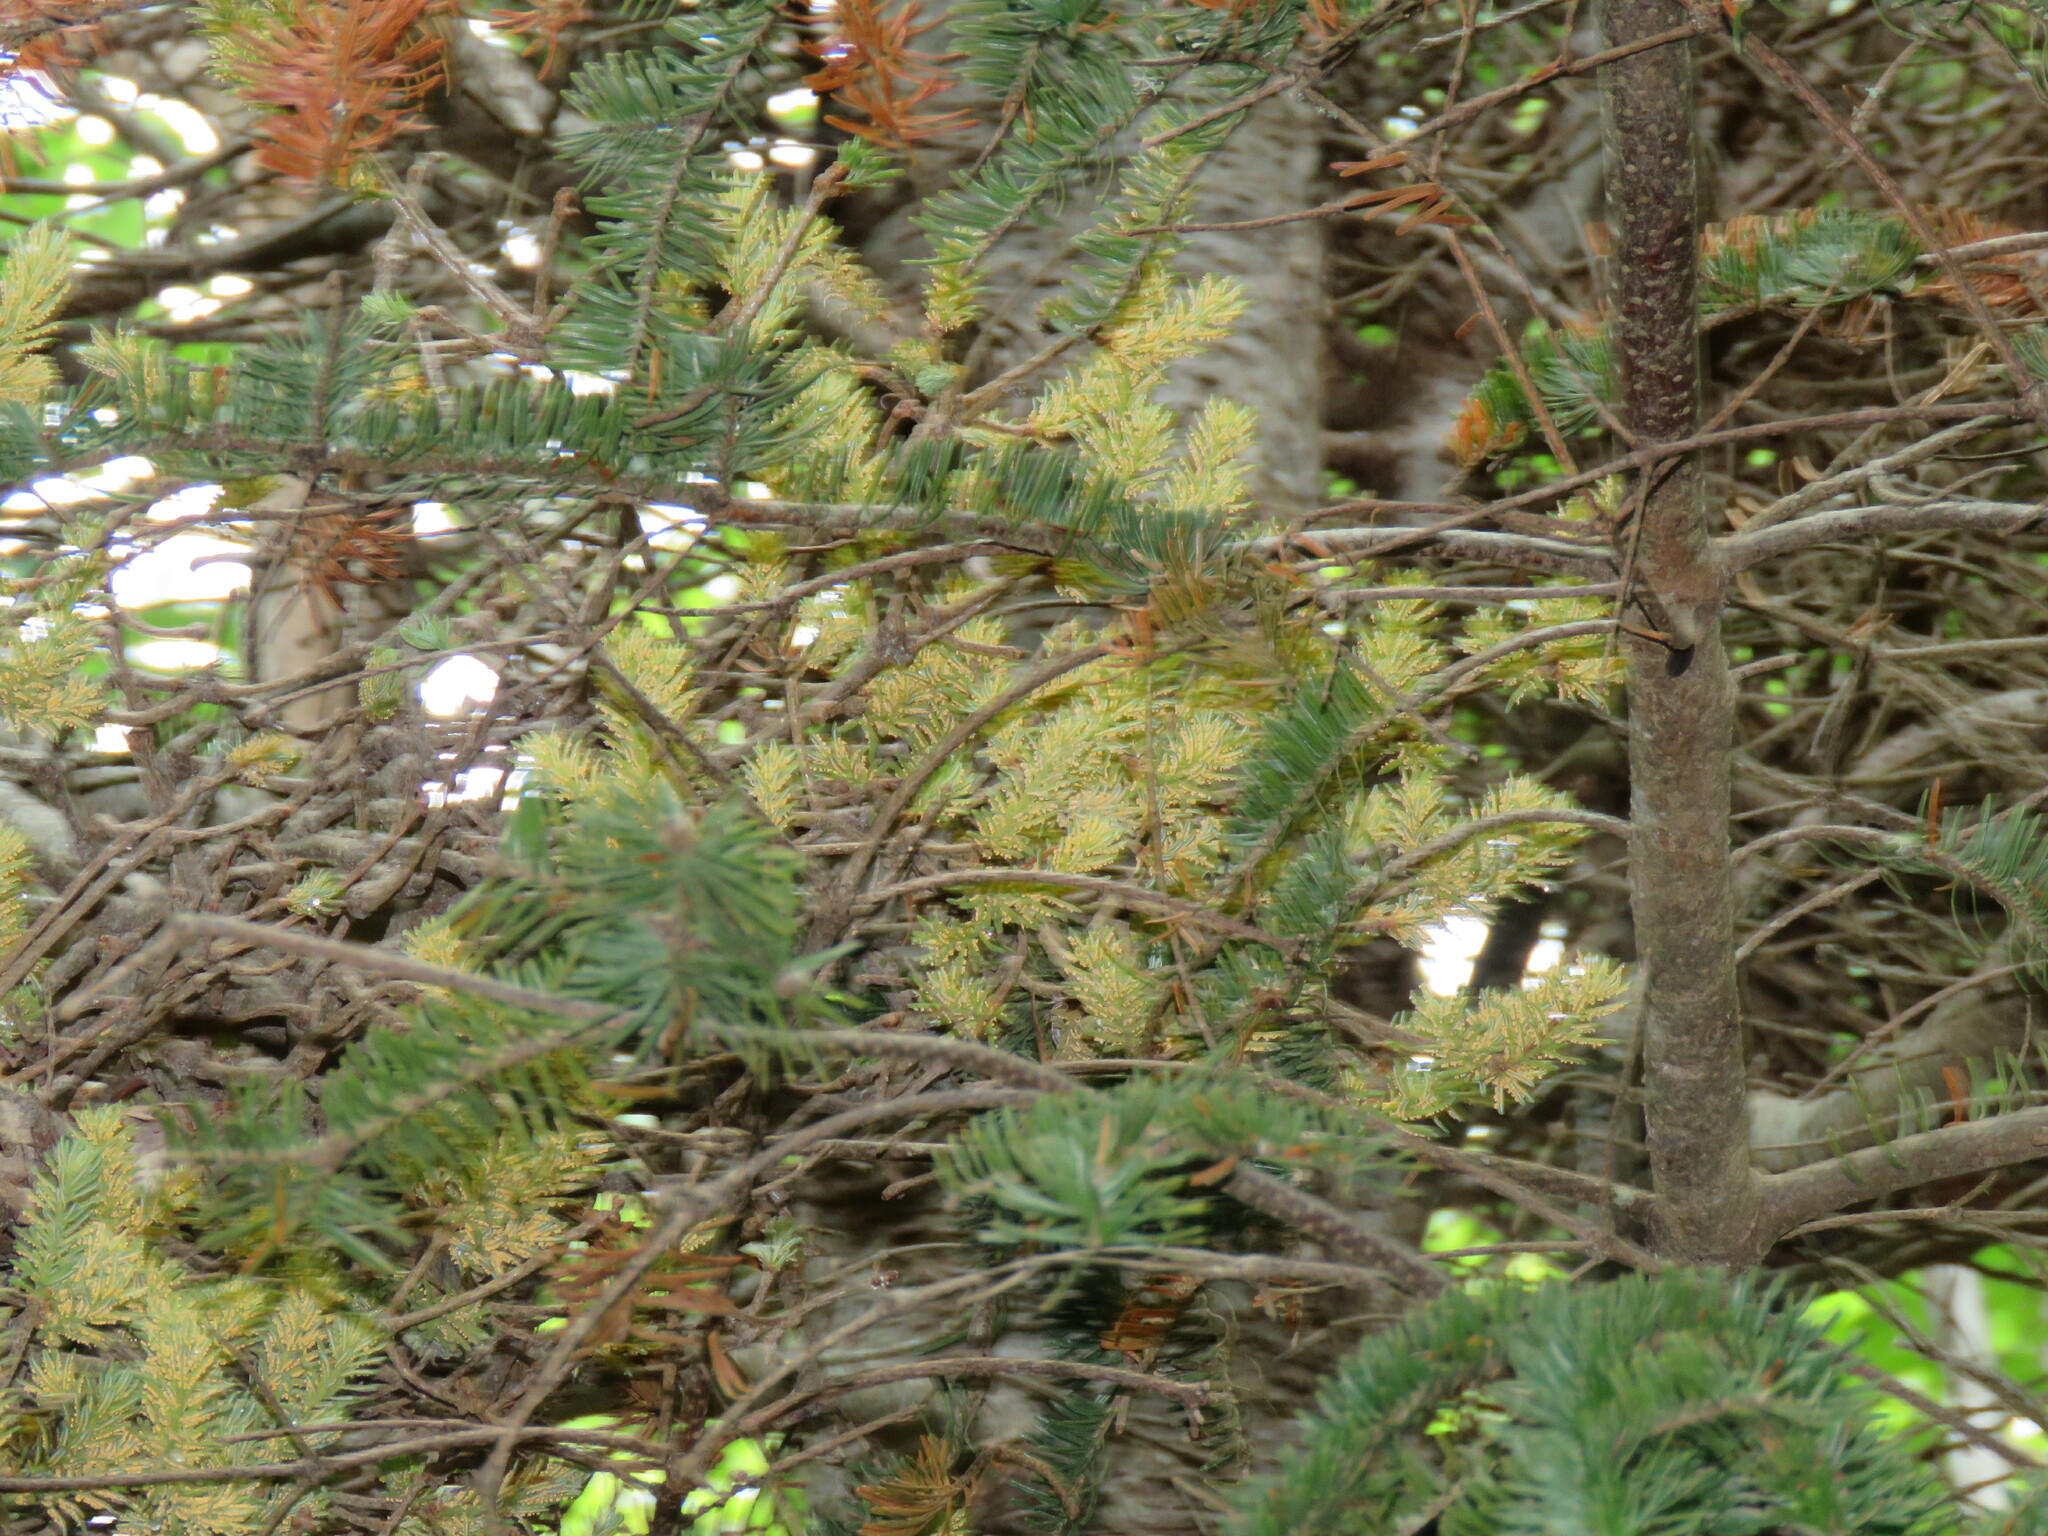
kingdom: Fungi
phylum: Basidiomycota
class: Pucciniomycetes
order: Pucciniales
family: Pucciniastraceae
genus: Melampsorella
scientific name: Melampsorella elatina
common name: Fir broom rust
